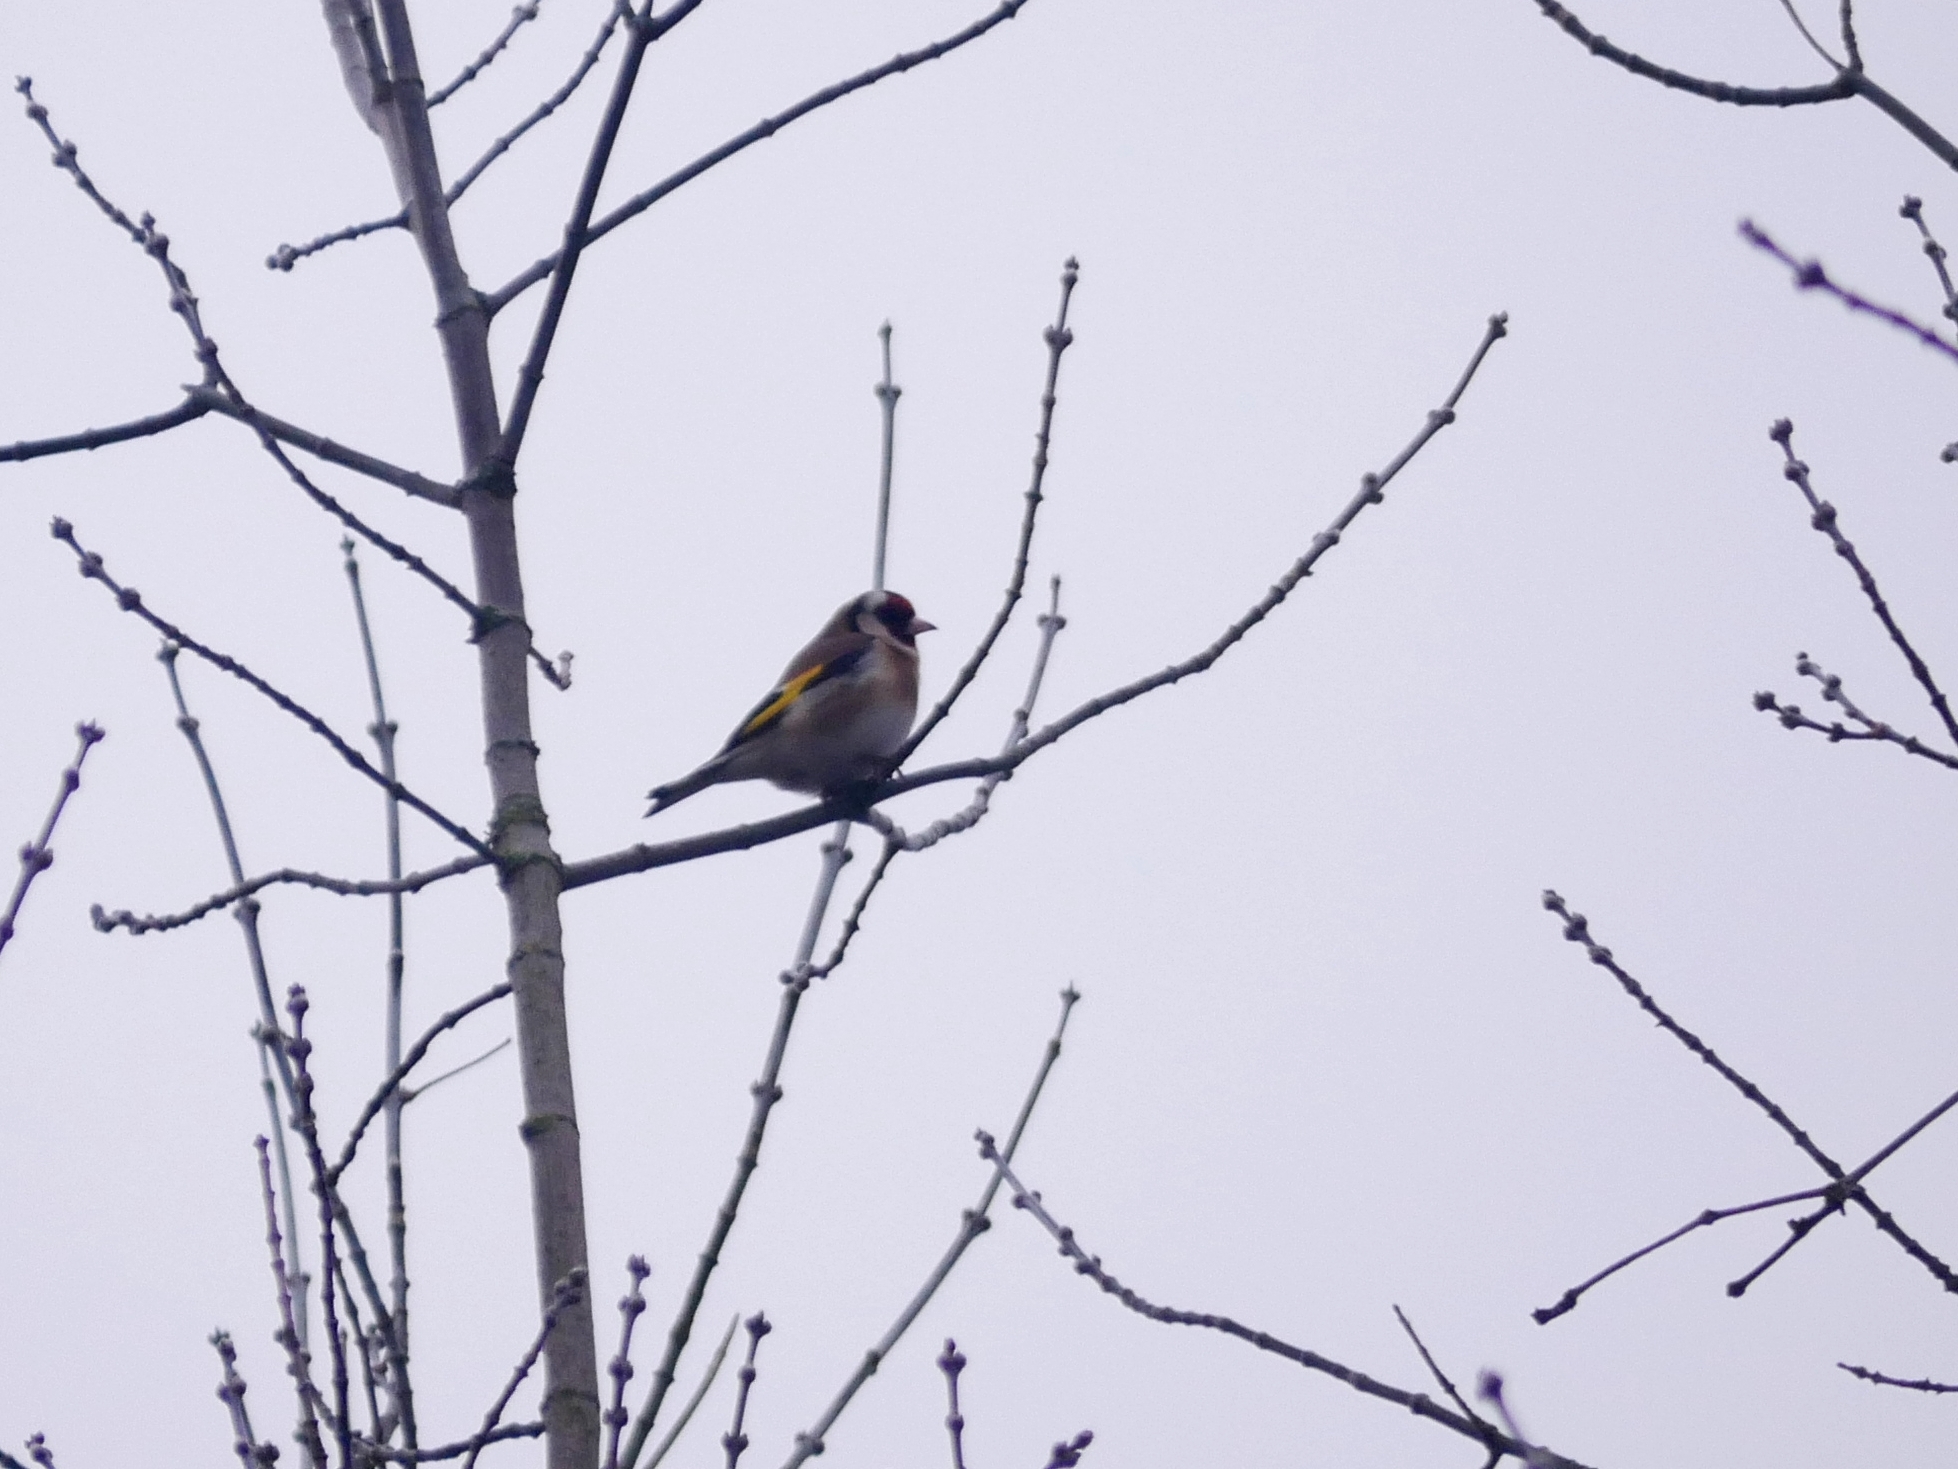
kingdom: Animalia
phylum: Chordata
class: Aves
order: Passeriformes
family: Fringillidae
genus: Carduelis
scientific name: Carduelis carduelis
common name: European goldfinch
